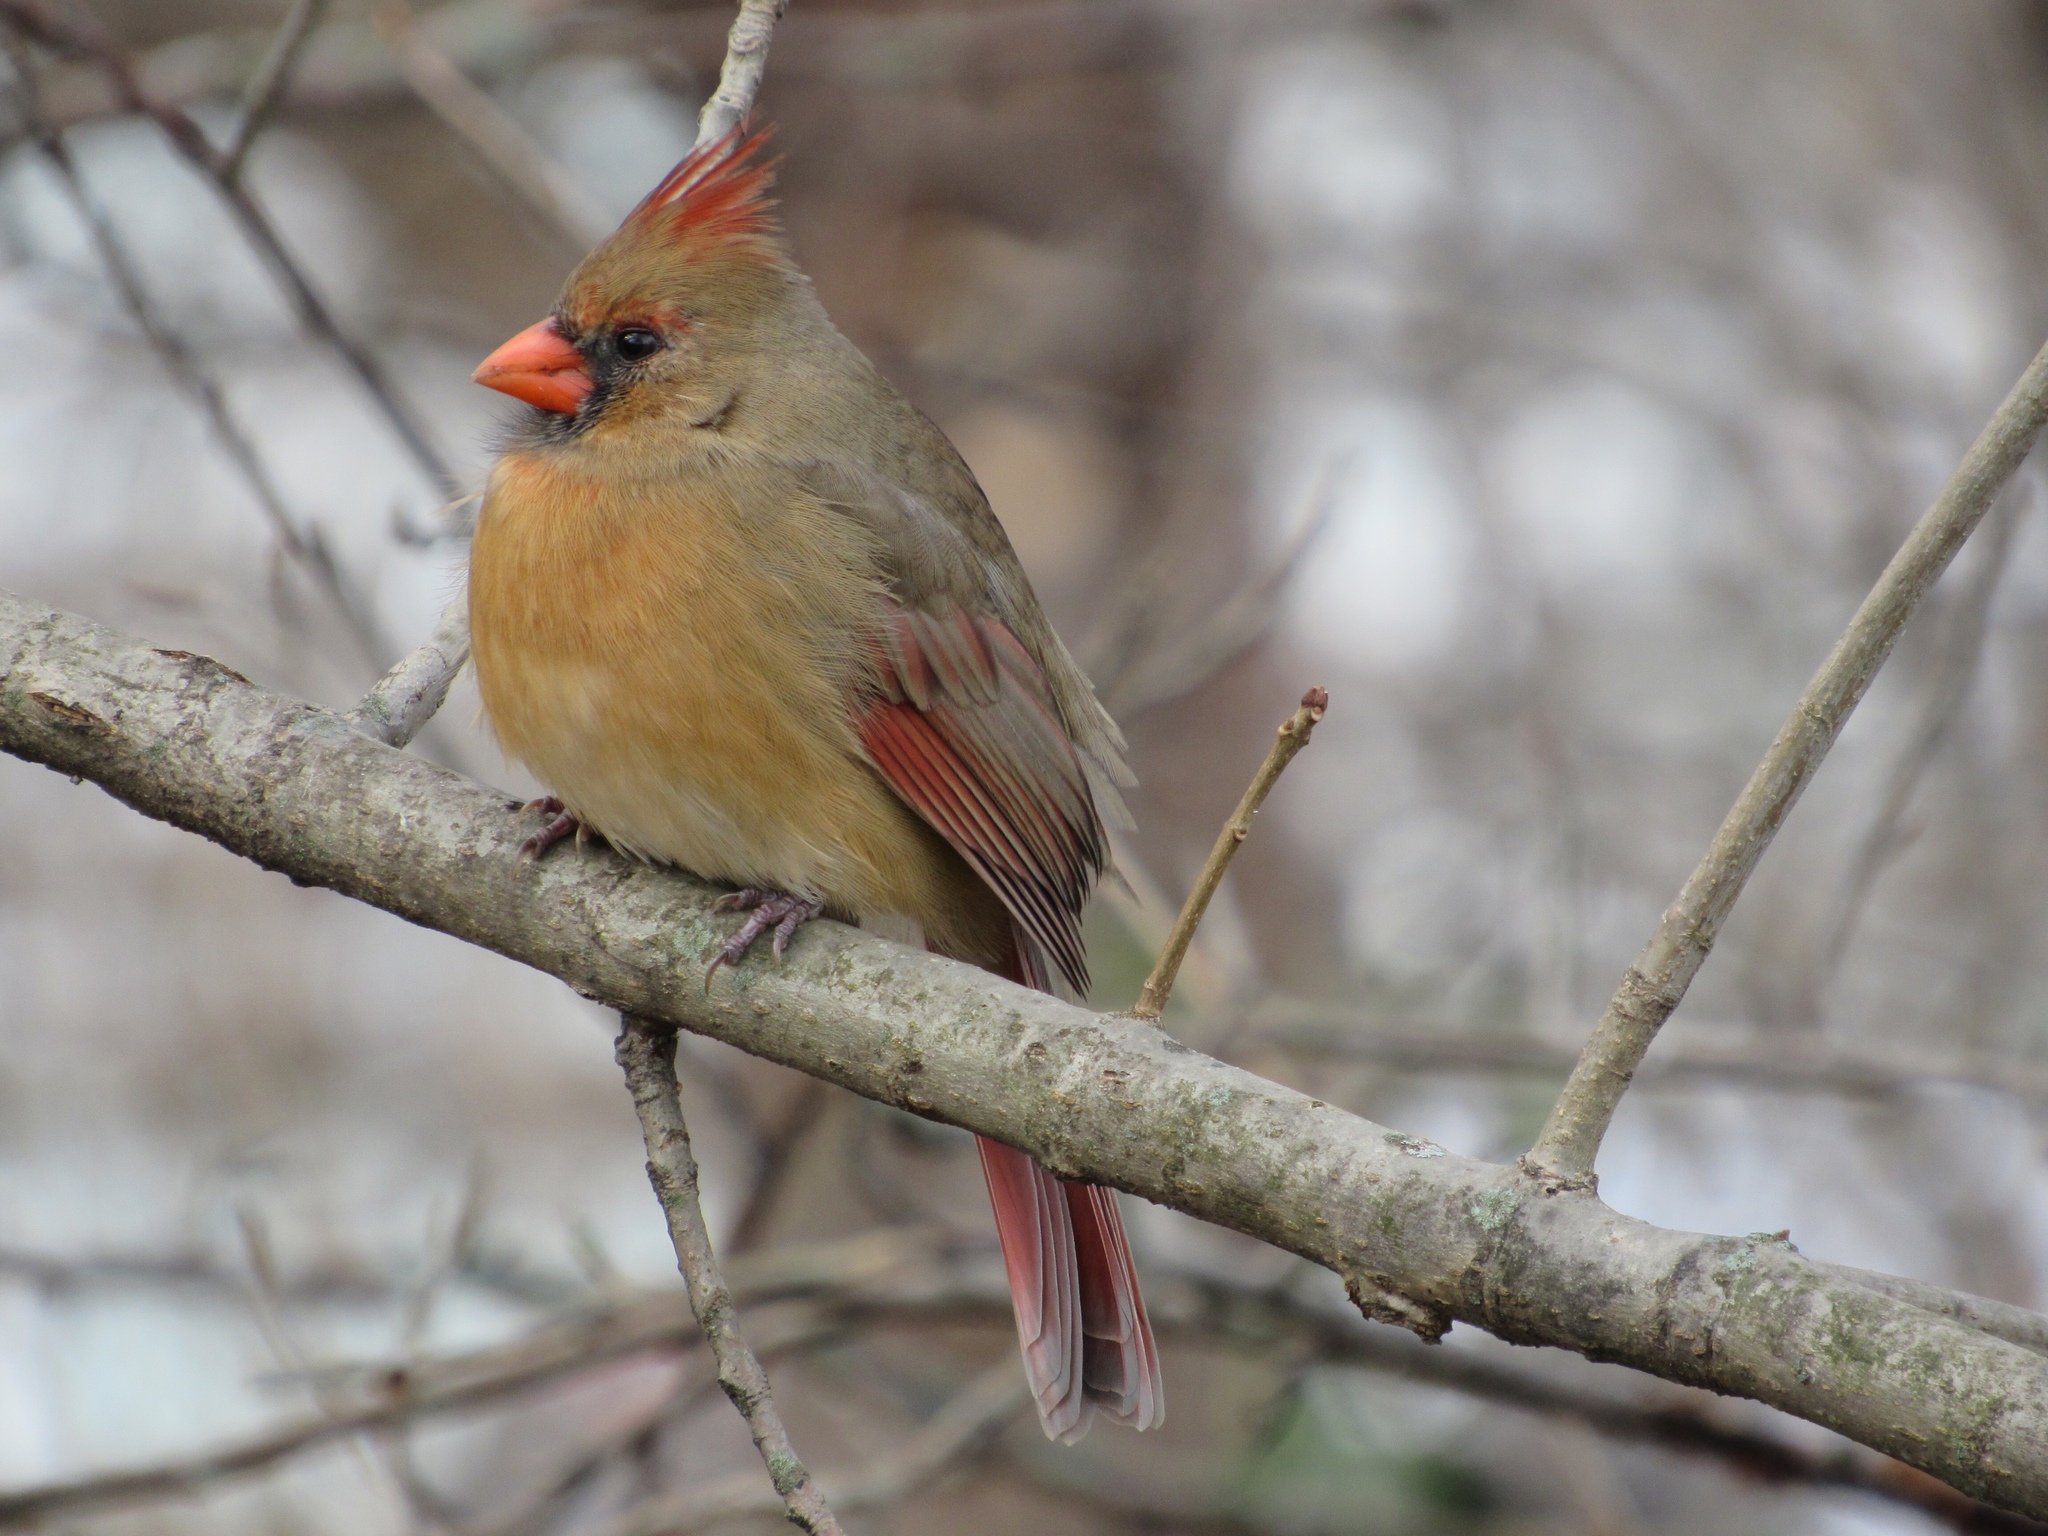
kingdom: Animalia
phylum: Chordata
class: Aves
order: Passeriformes
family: Cardinalidae
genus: Cardinalis
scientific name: Cardinalis cardinalis
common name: Northern cardinal
